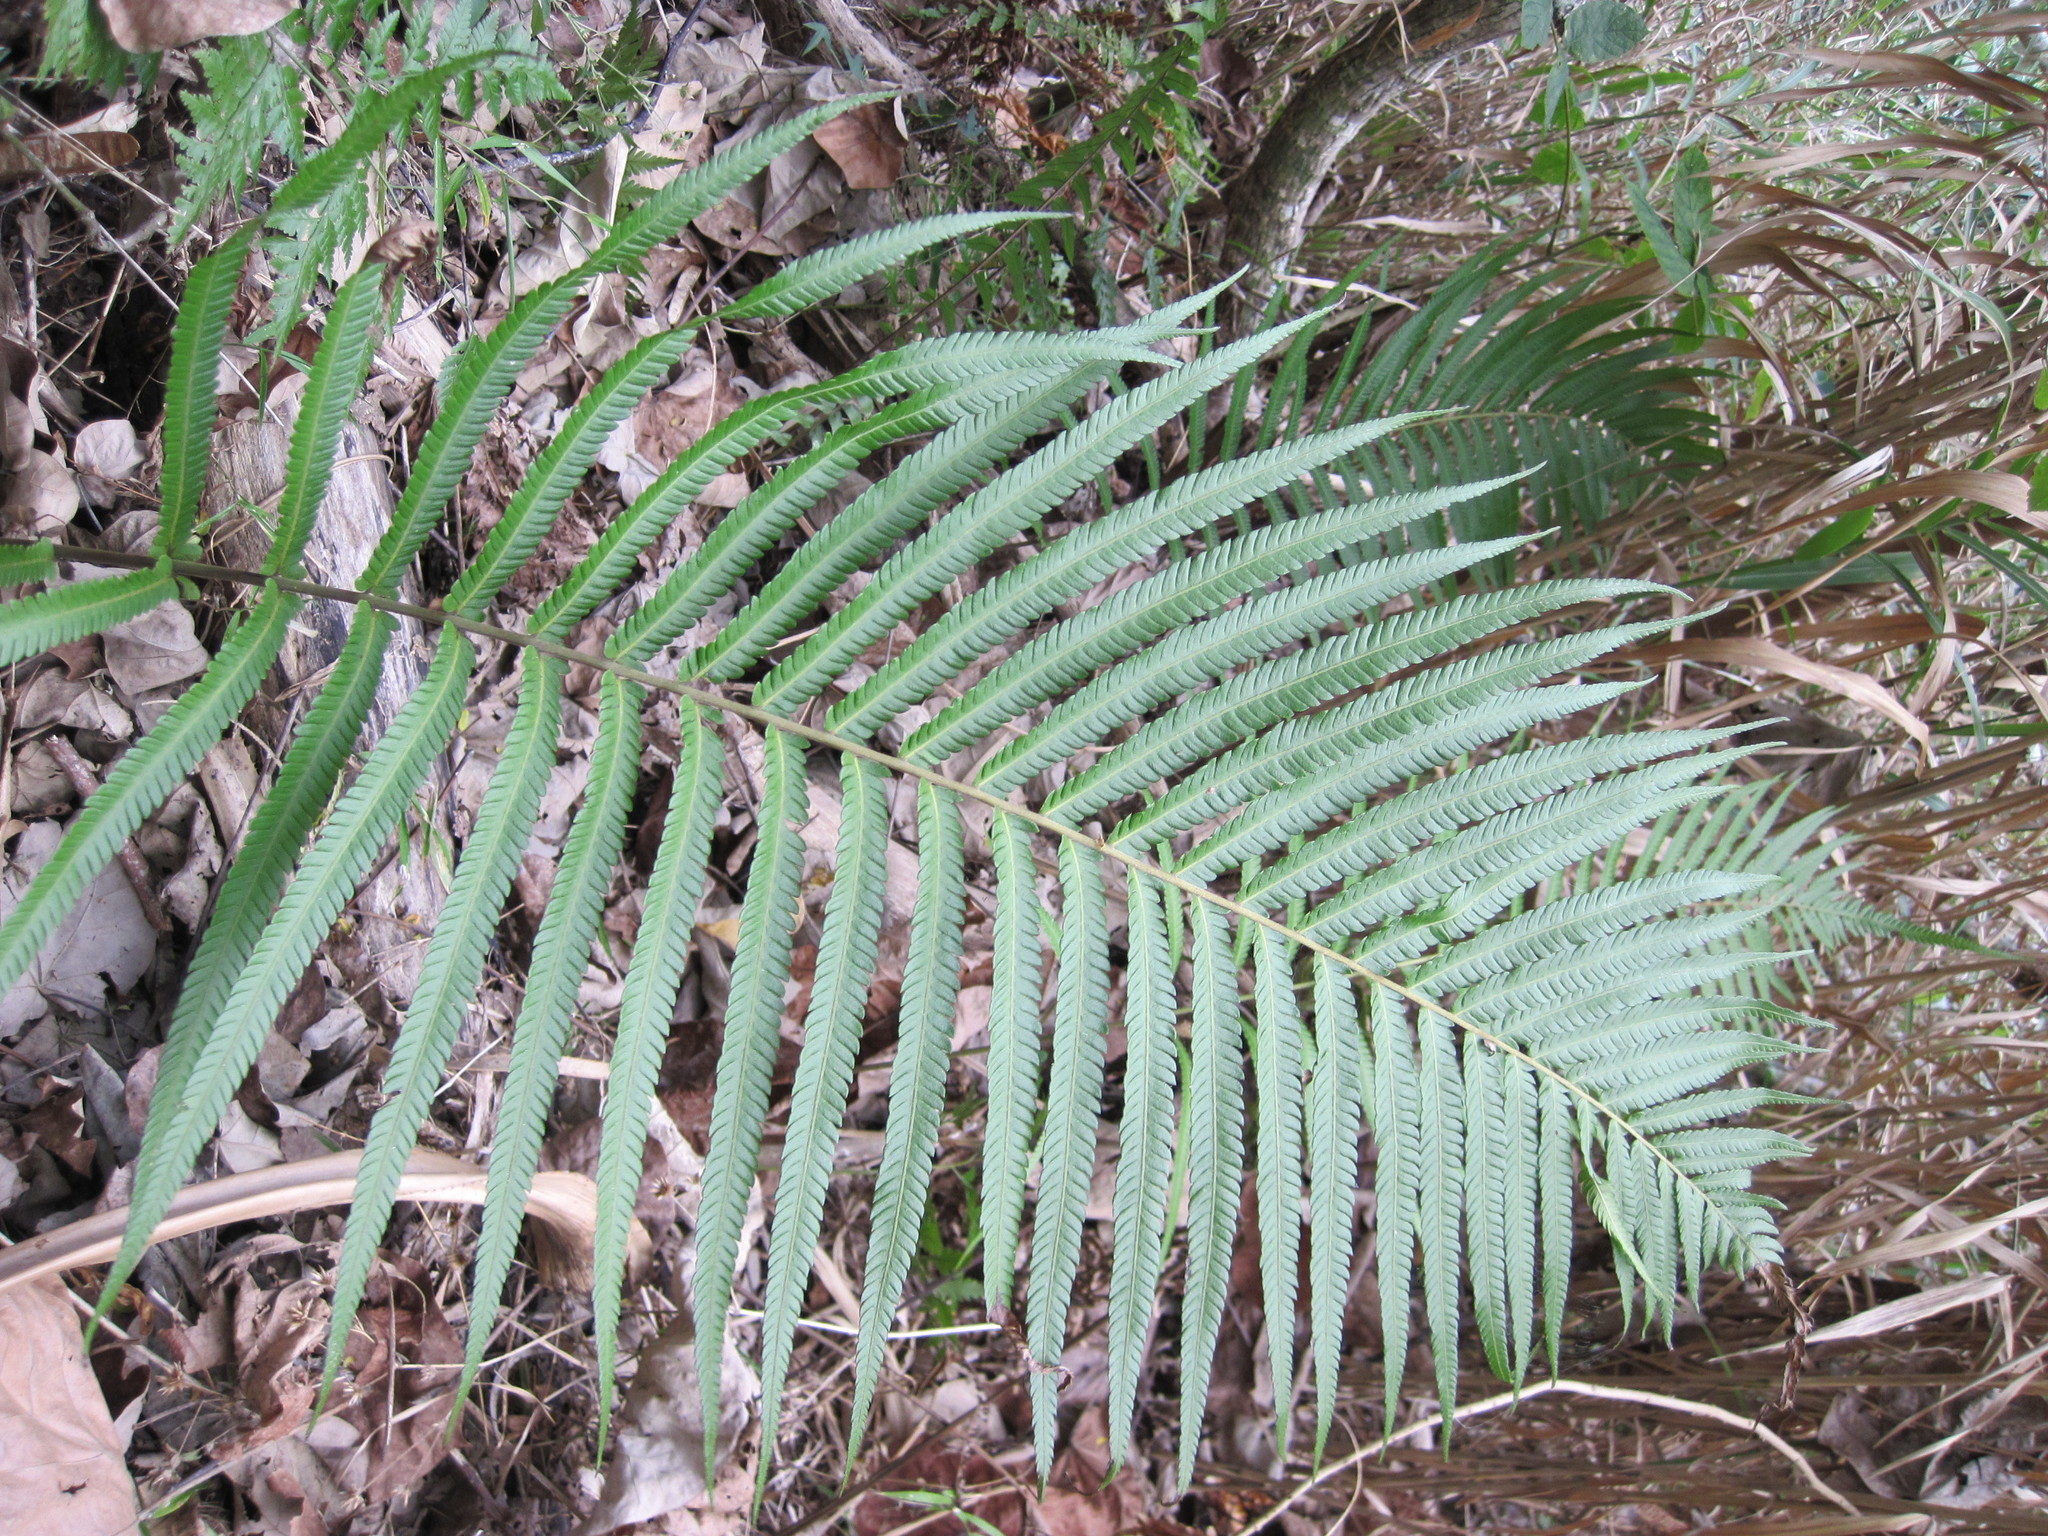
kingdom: Plantae
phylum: Tracheophyta
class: Polypodiopsida
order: Polypodiales
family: Thelypteridaceae
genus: Amblovenatum
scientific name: Amblovenatum opulentum
